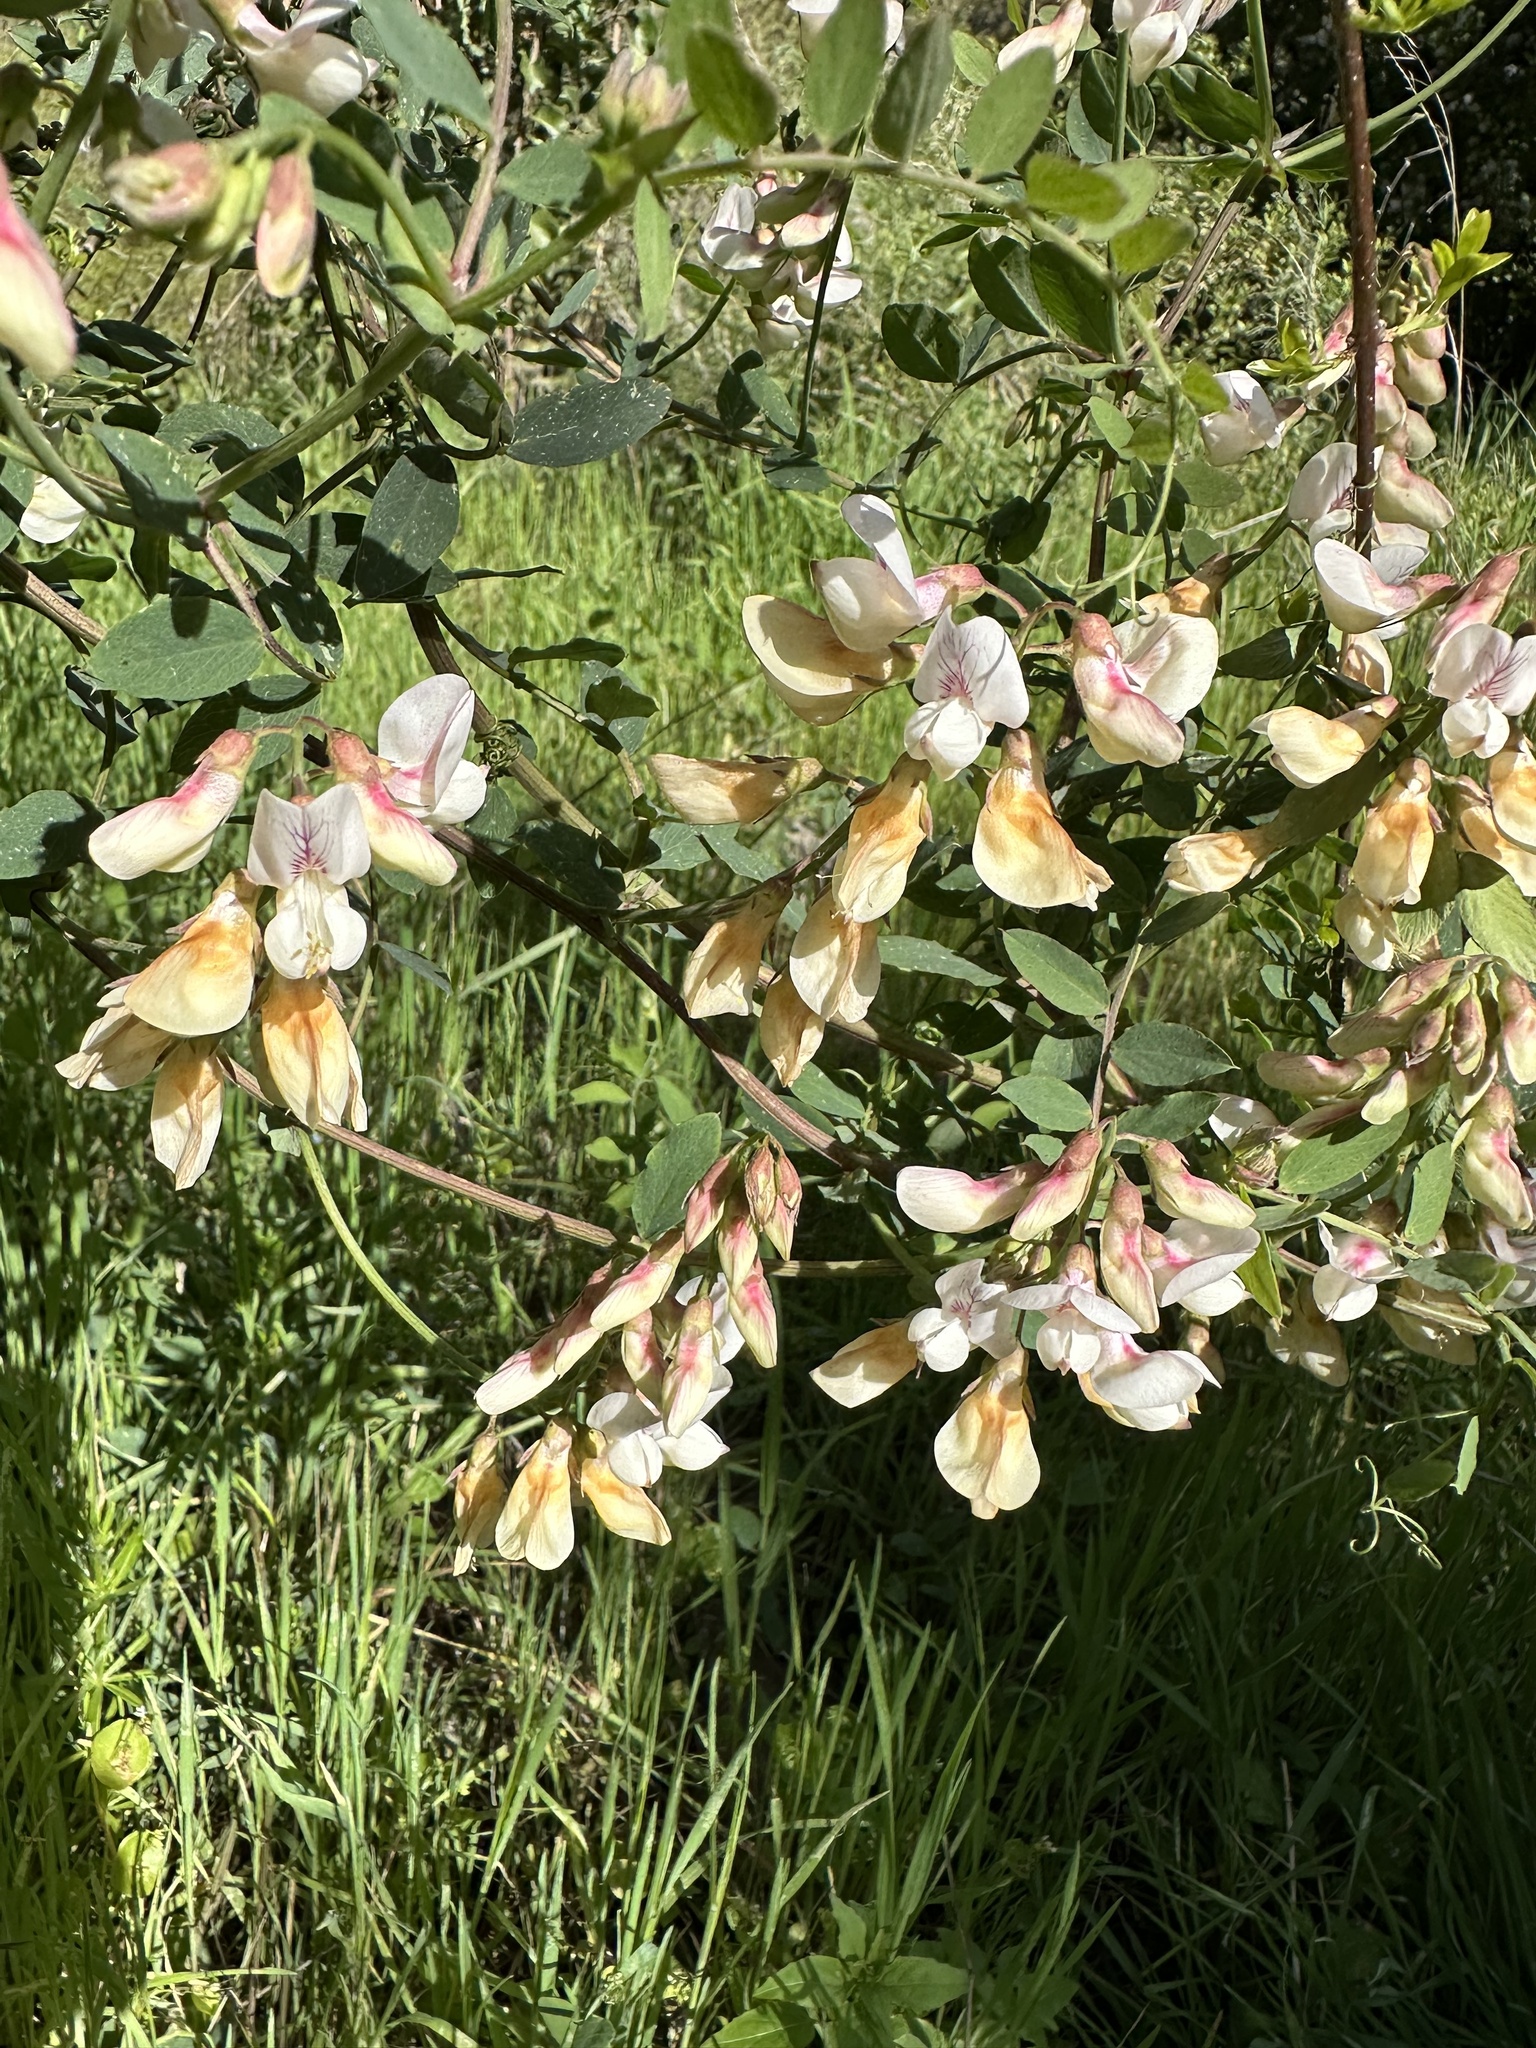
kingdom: Plantae
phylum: Tracheophyta
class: Magnoliopsida
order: Fabales
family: Fabaceae
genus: Lathyrus
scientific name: Lathyrus vestitus
